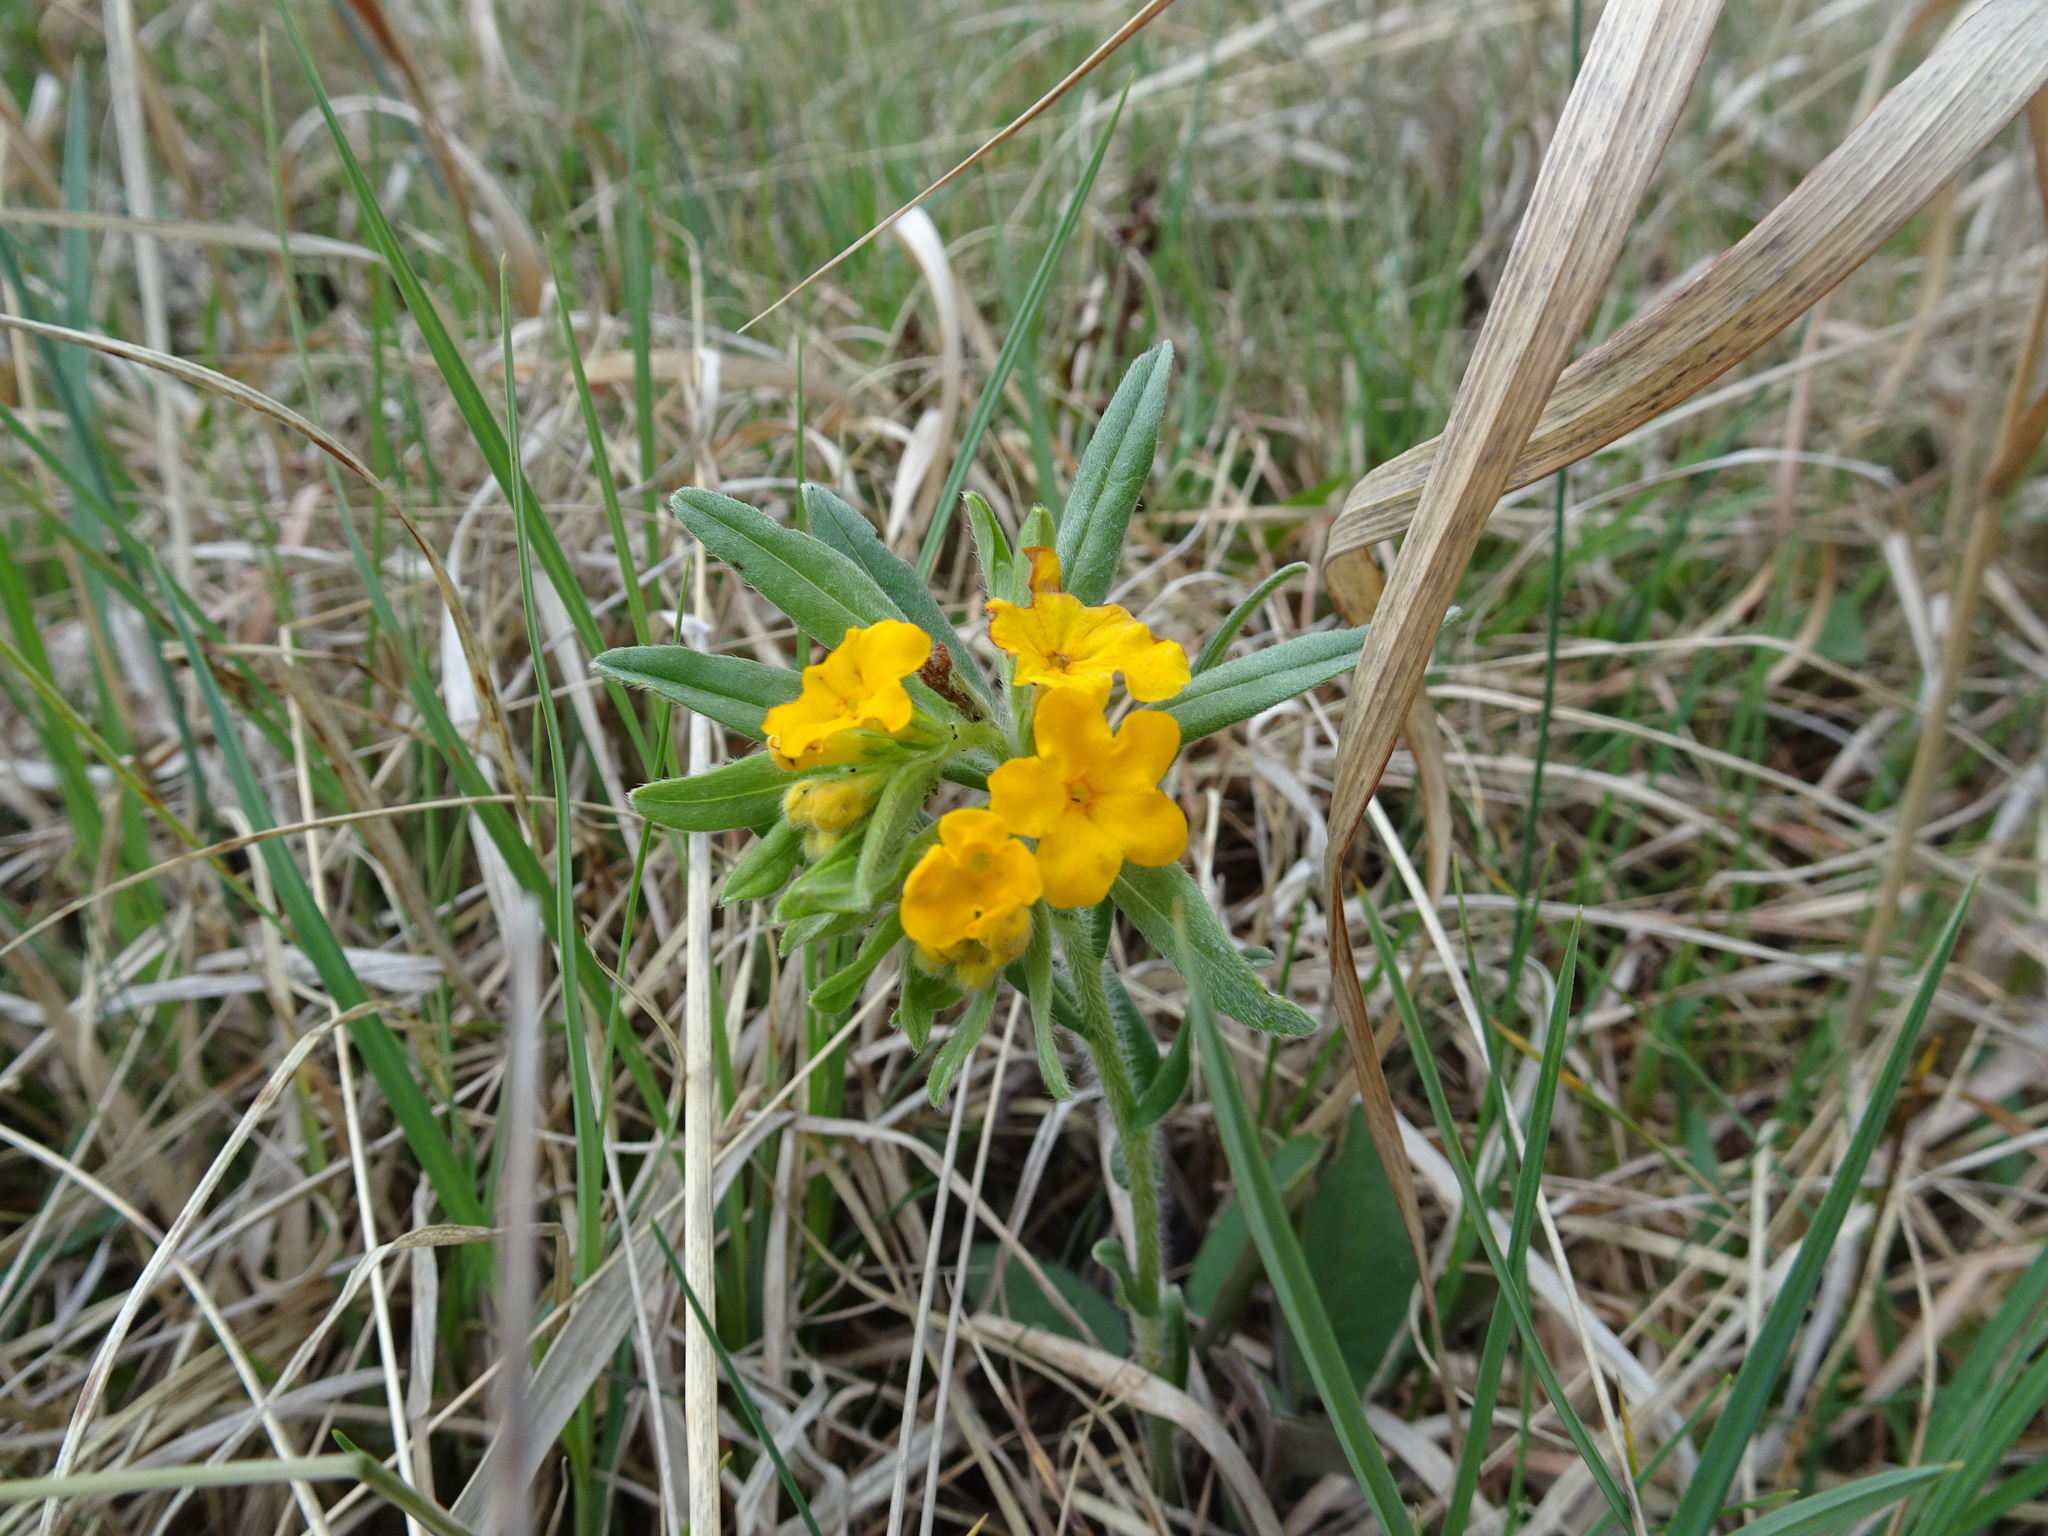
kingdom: Plantae
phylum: Tracheophyta
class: Magnoliopsida
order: Boraginales
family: Boraginaceae
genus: Lithospermum
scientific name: Lithospermum canescens
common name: Hoary puccoon
